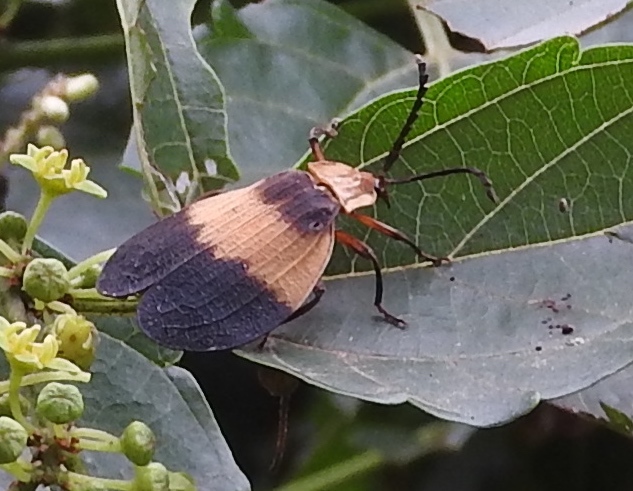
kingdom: Animalia
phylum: Arthropoda
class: Insecta
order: Coleoptera
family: Lycidae
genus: Calopteron
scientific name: Calopteron
